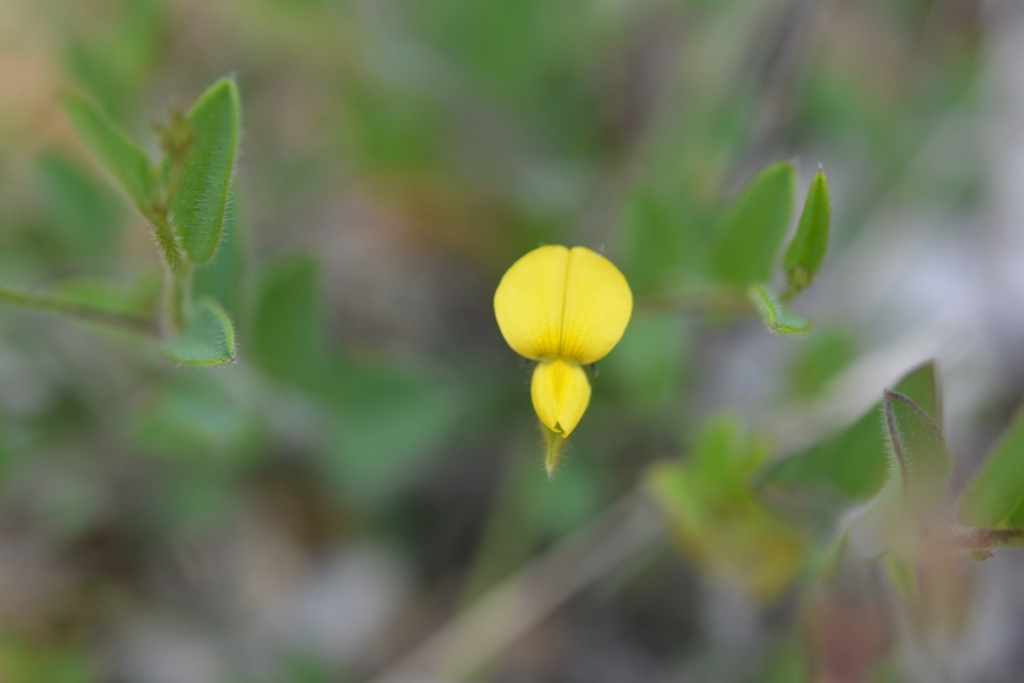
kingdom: Plantae
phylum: Tracheophyta
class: Magnoliopsida
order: Fabales
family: Fabaceae
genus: Crotalaria
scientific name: Crotalaria bupleurifolia
